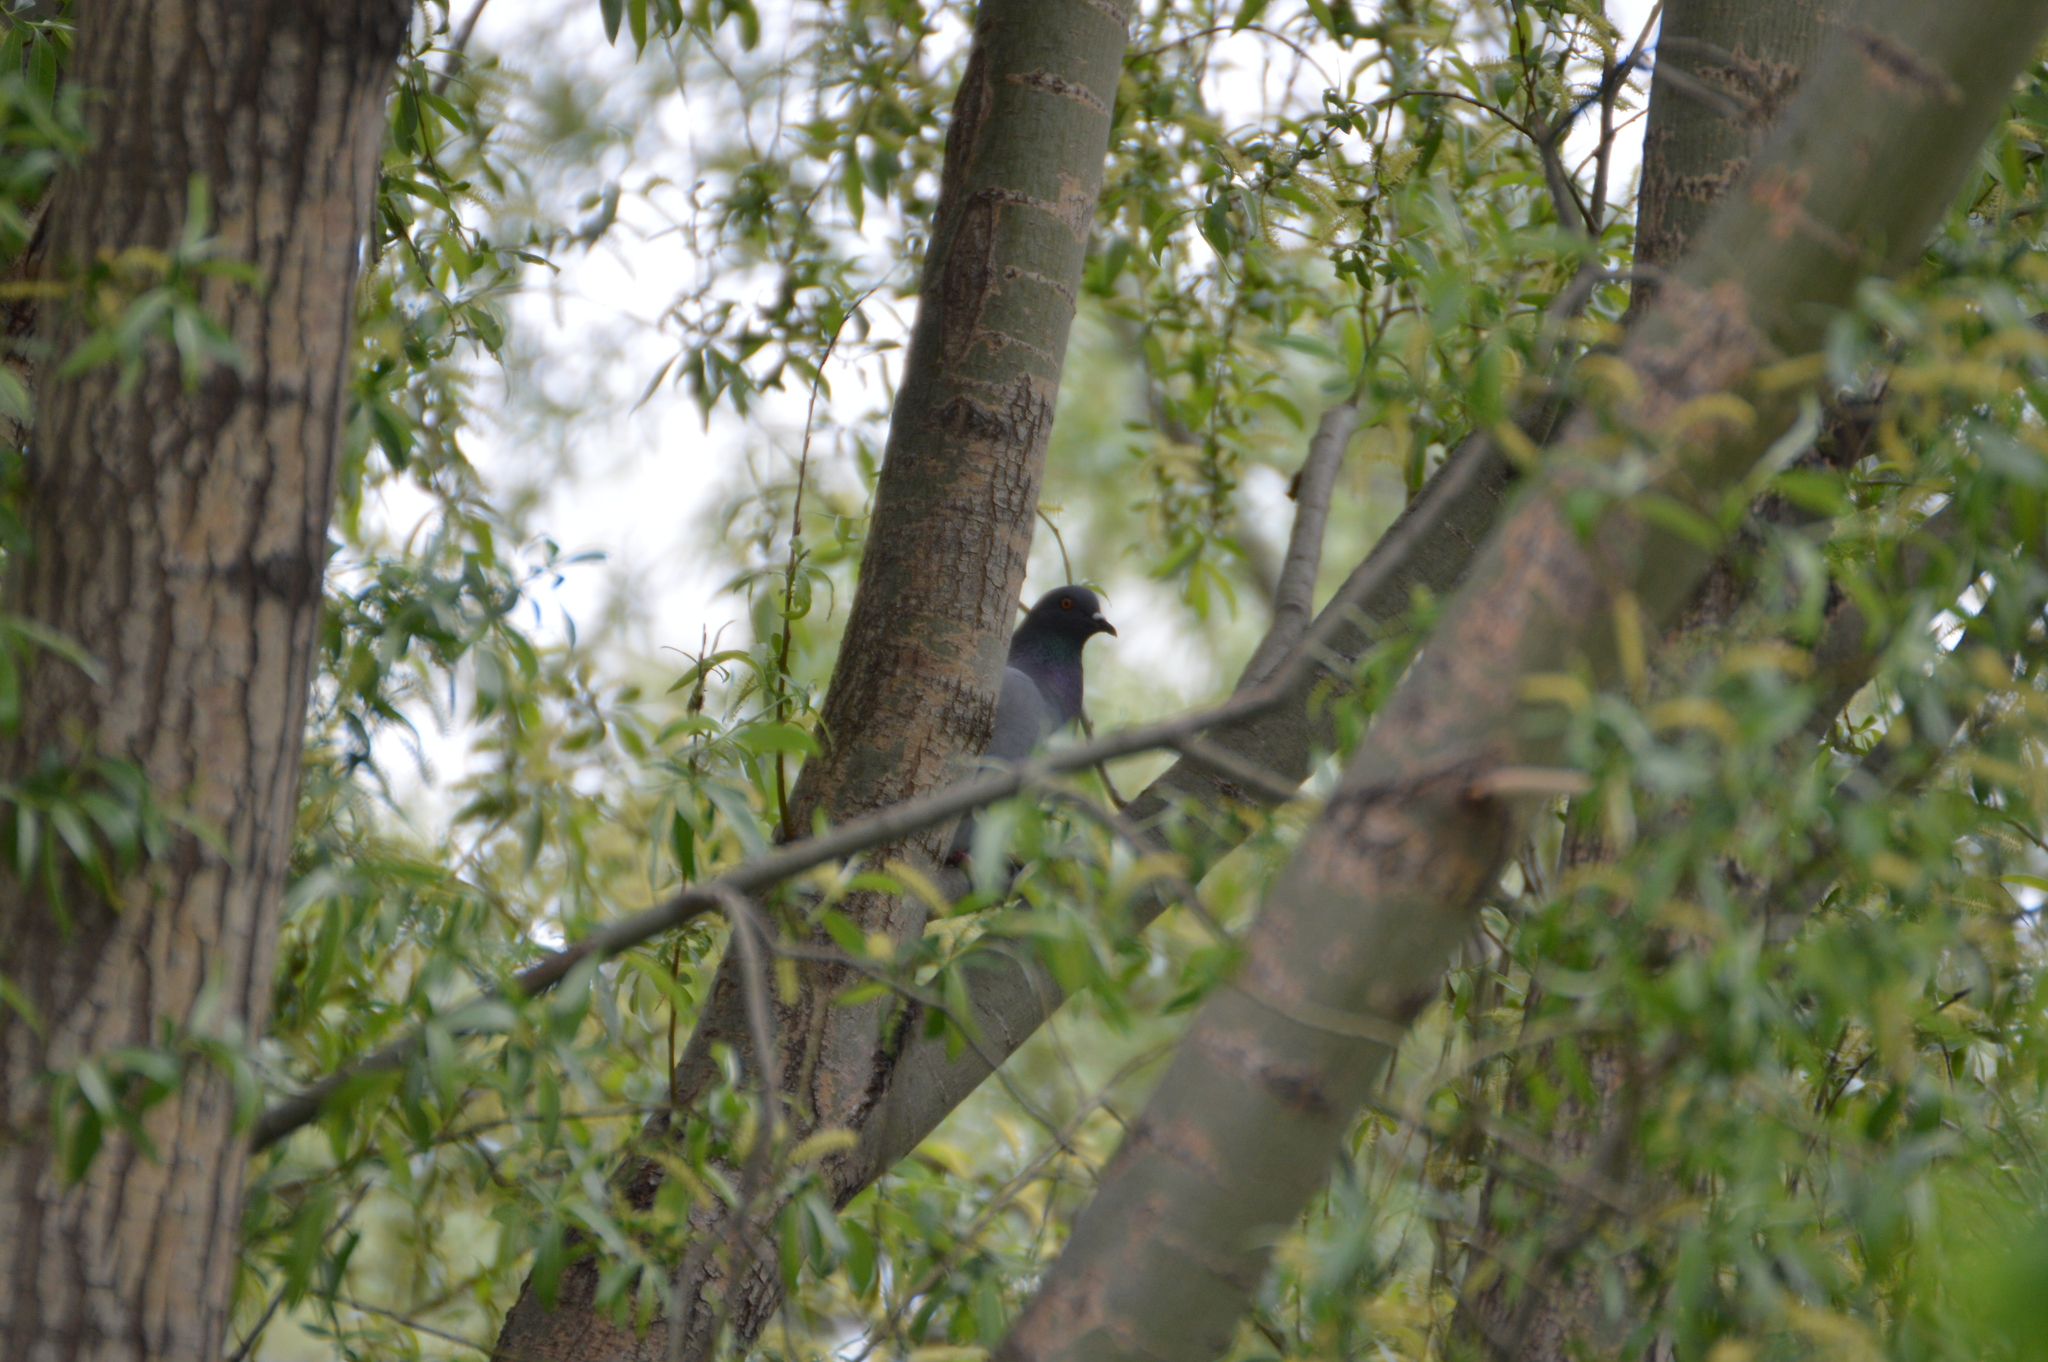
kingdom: Animalia
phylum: Chordata
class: Aves
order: Columbiformes
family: Columbidae
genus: Columba
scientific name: Columba livia
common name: Rock pigeon
